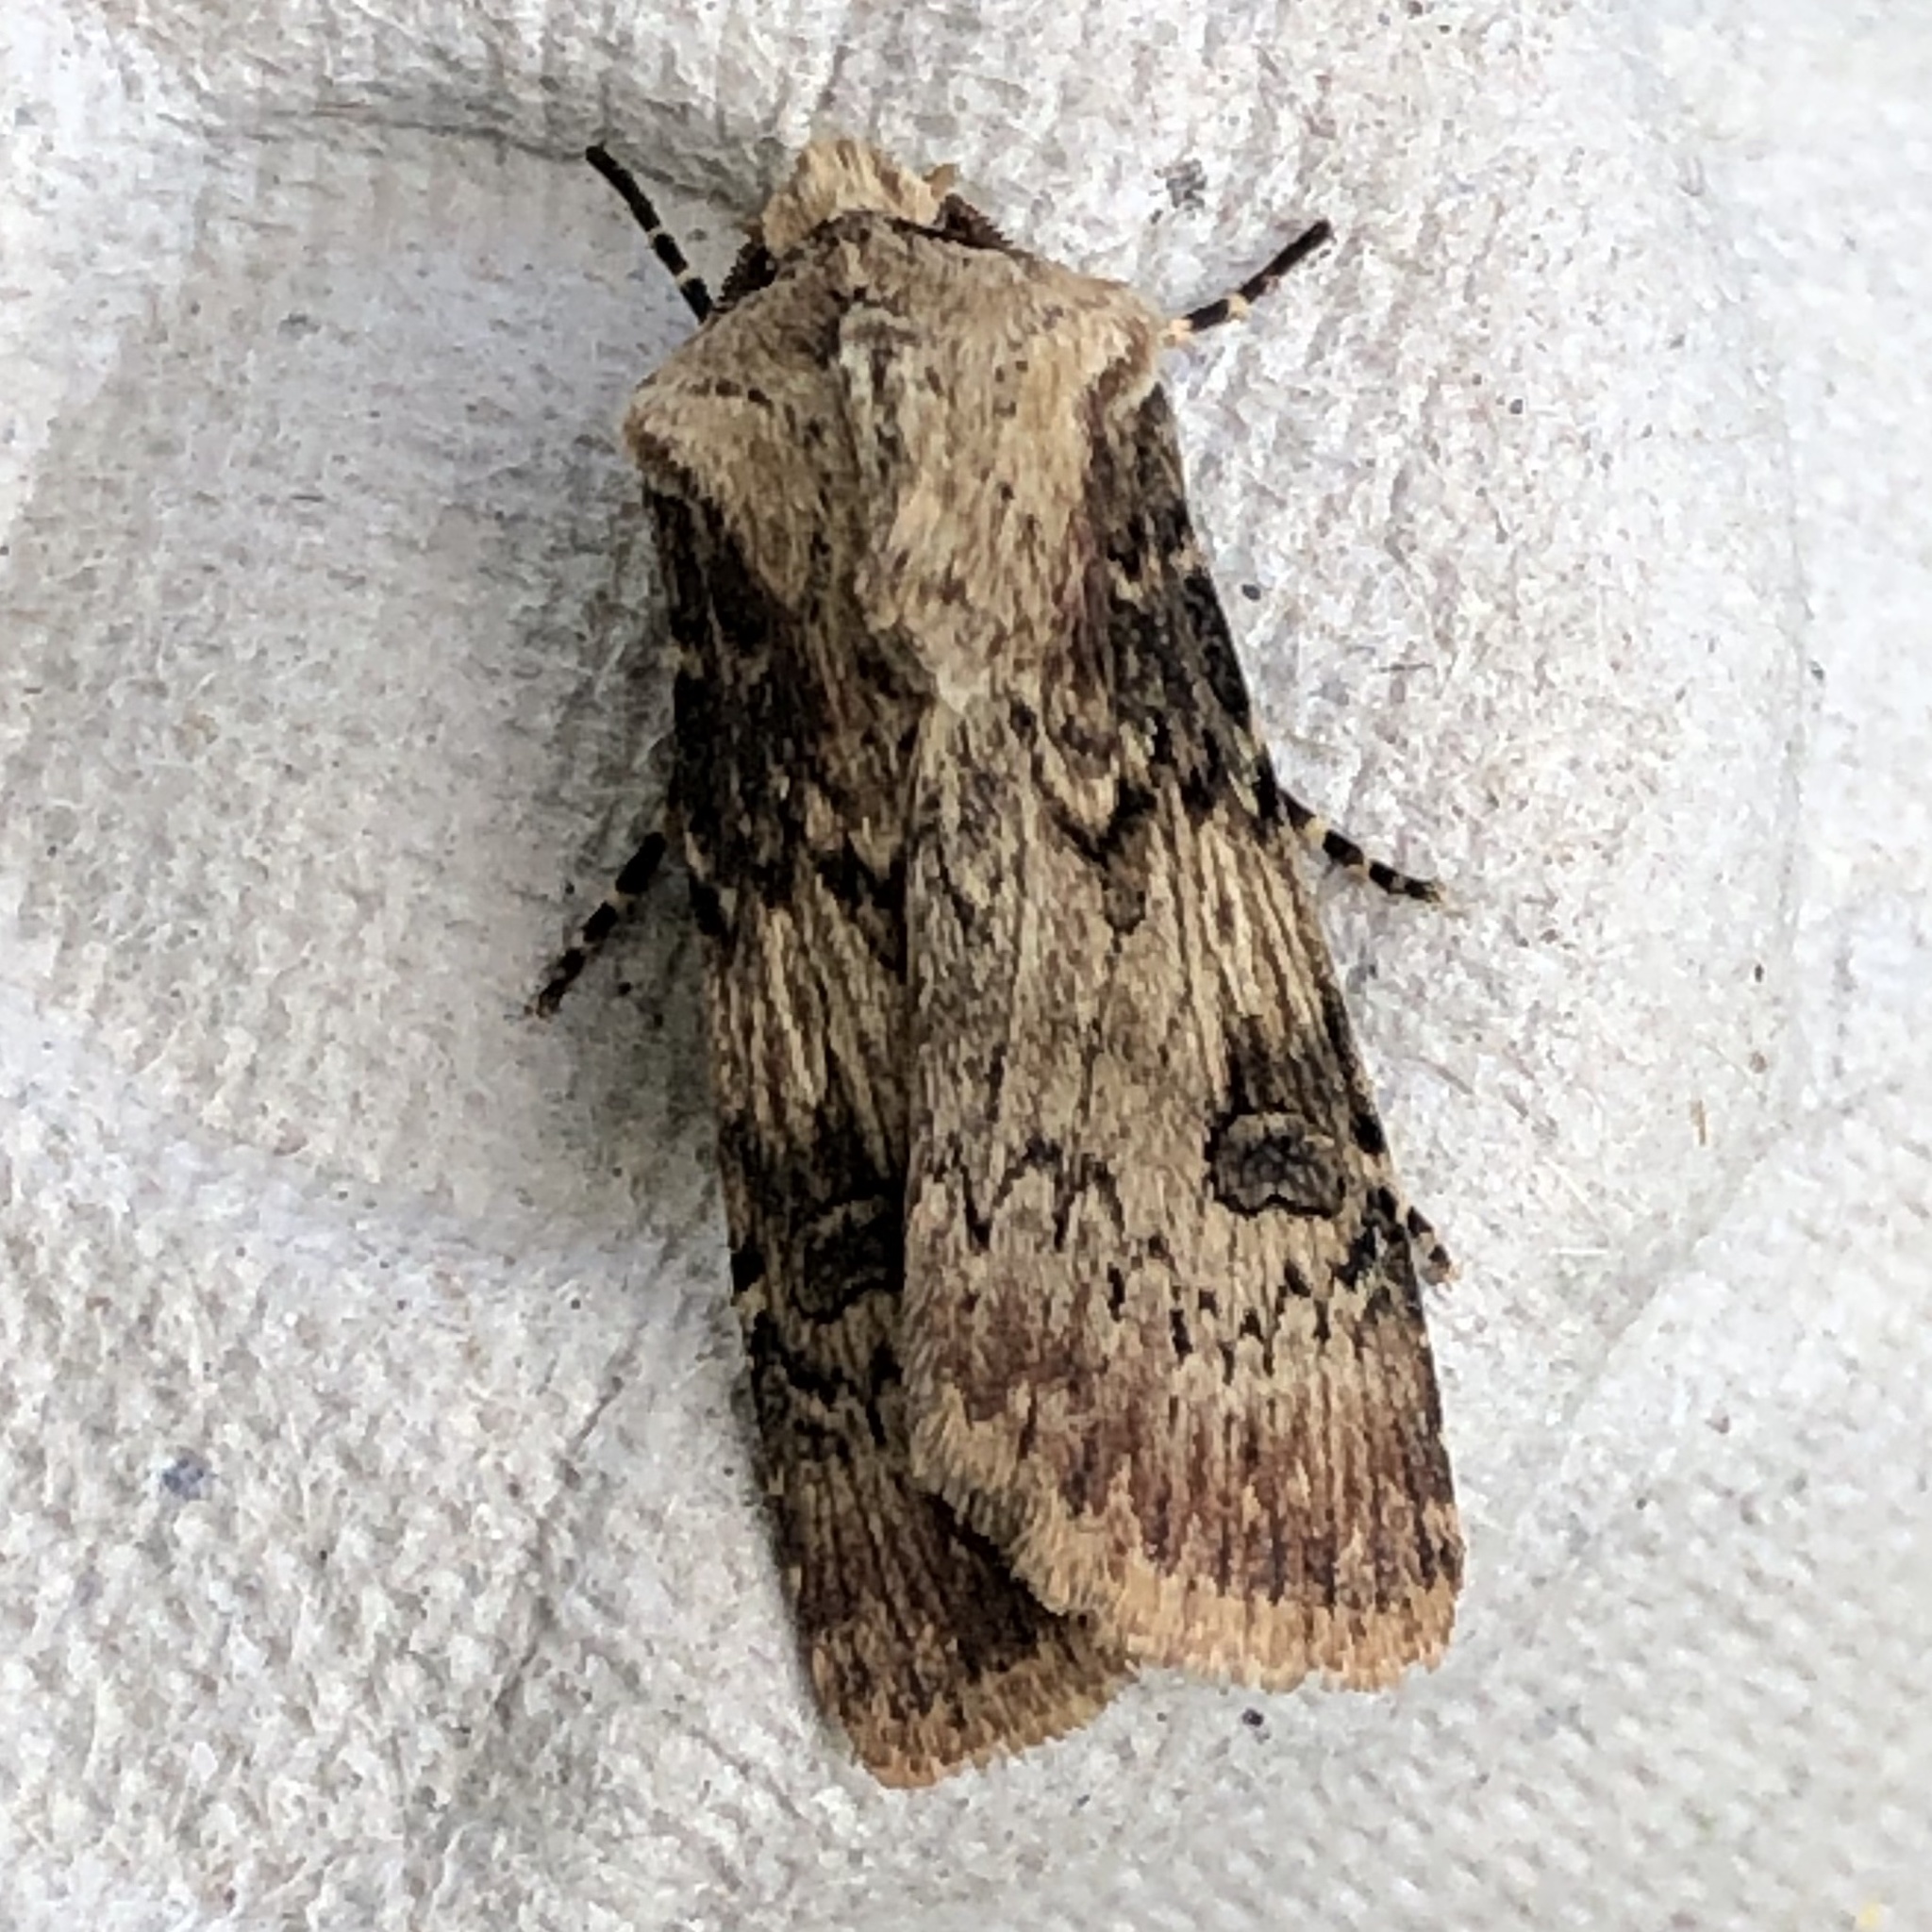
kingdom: Animalia
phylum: Arthropoda
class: Insecta
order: Lepidoptera
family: Noctuidae
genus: Agrotis
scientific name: Agrotis puta
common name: Shuttle-shaped dart
